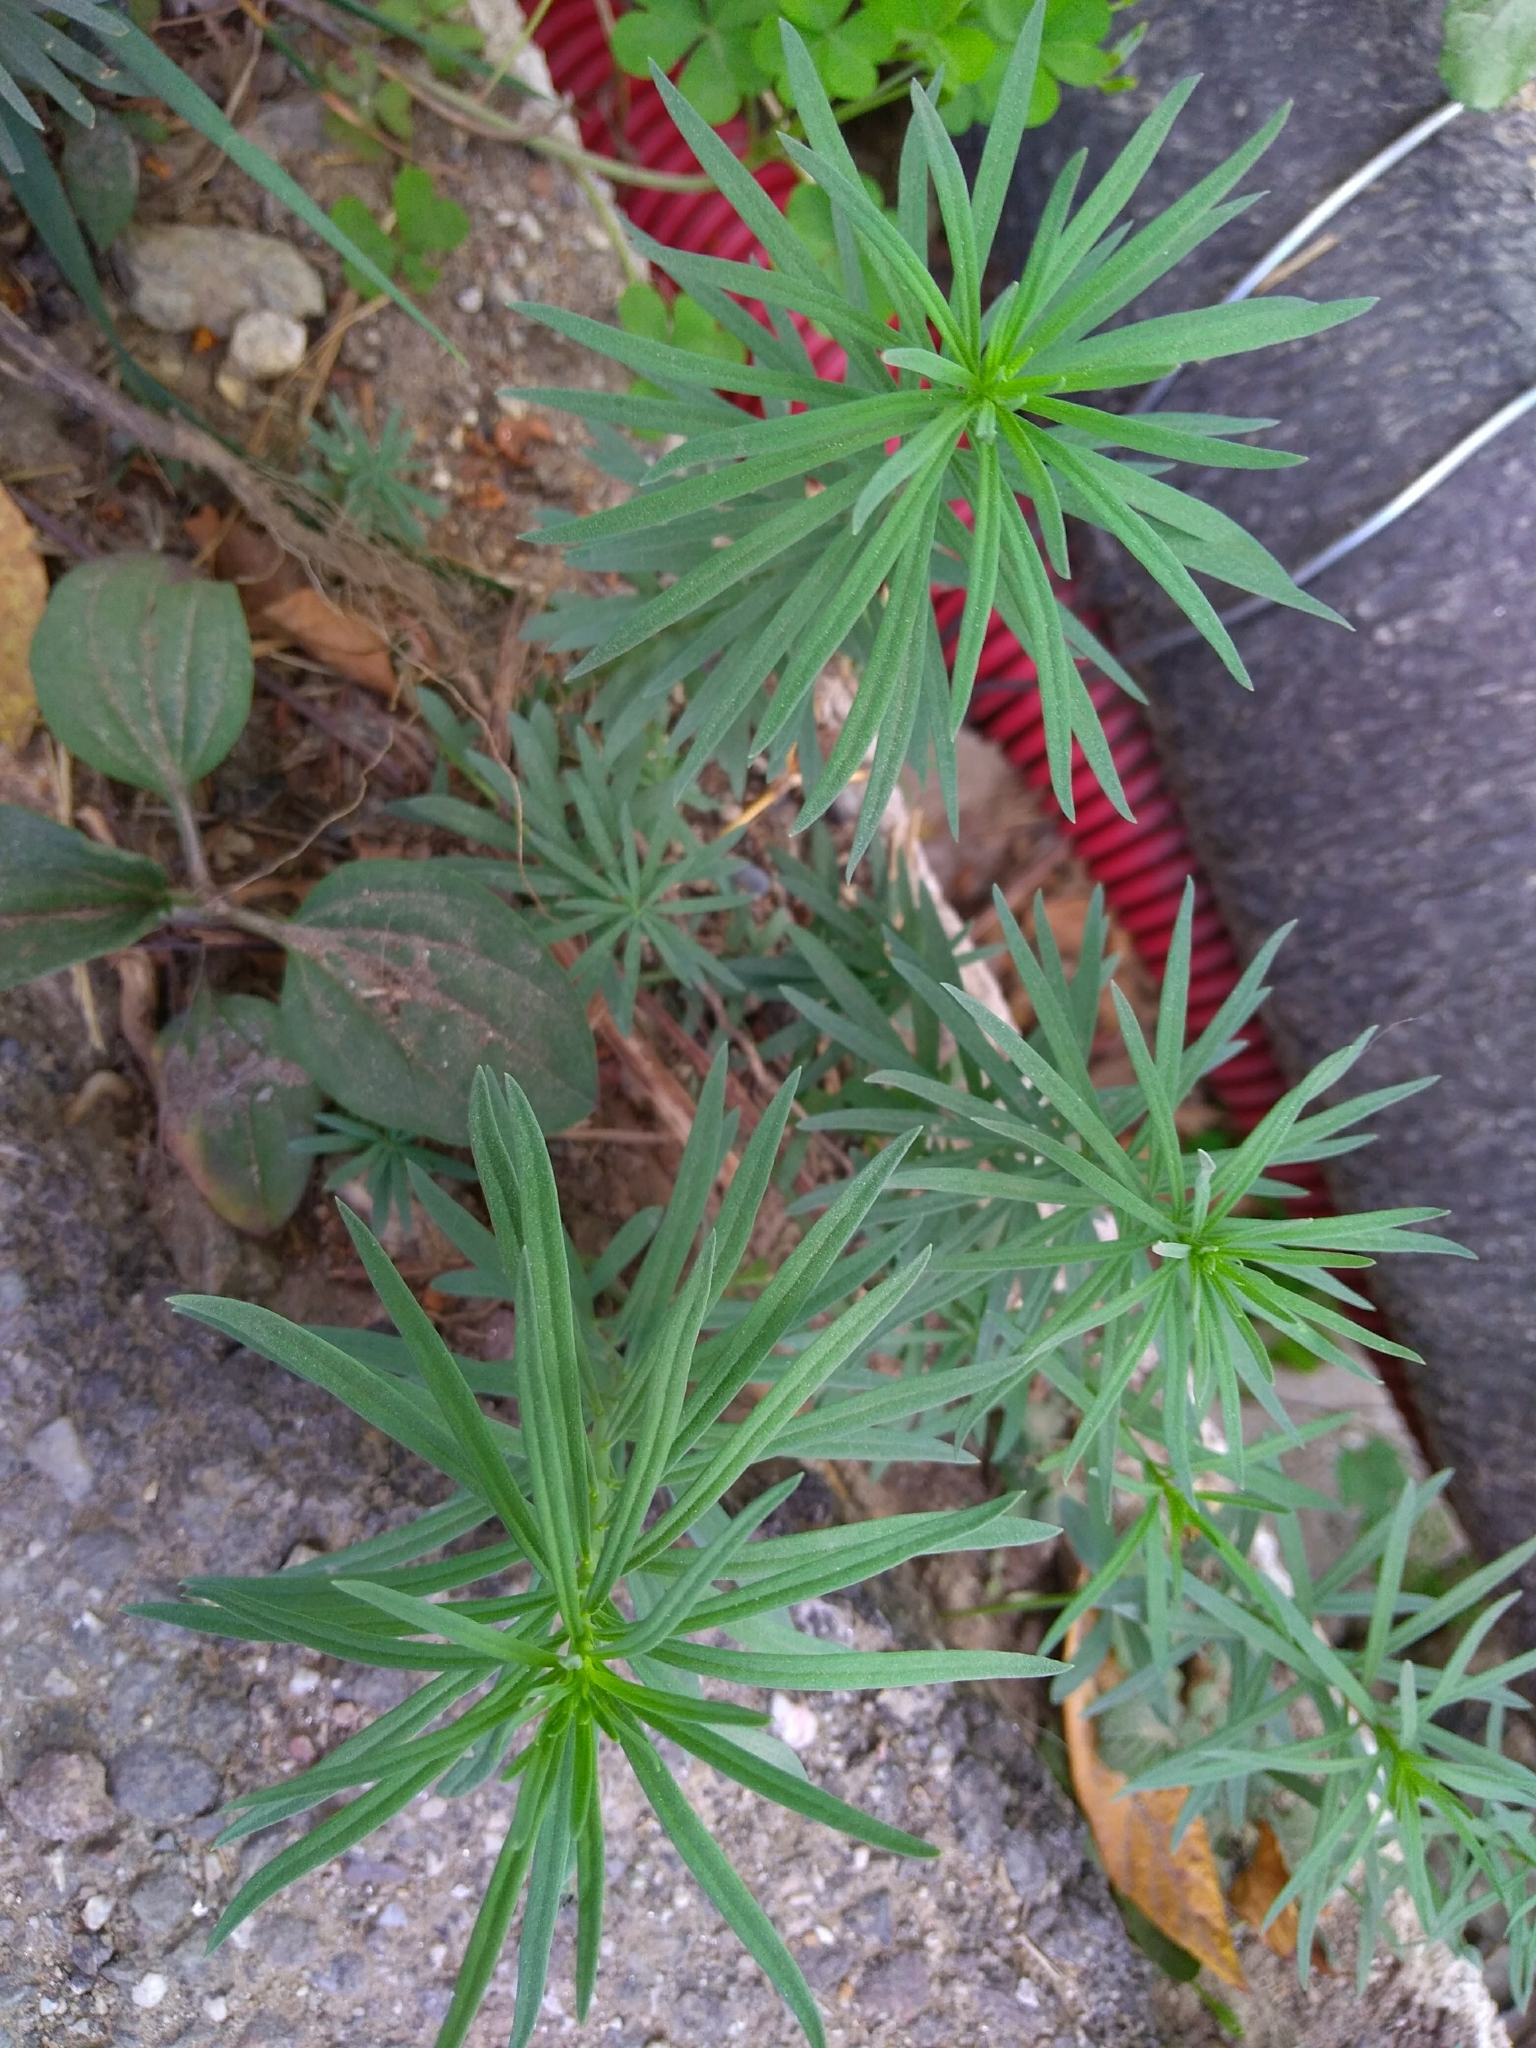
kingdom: Plantae
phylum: Tracheophyta
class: Magnoliopsida
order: Lamiales
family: Plantaginaceae
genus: Linaria
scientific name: Linaria vulgaris
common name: Butter and eggs
